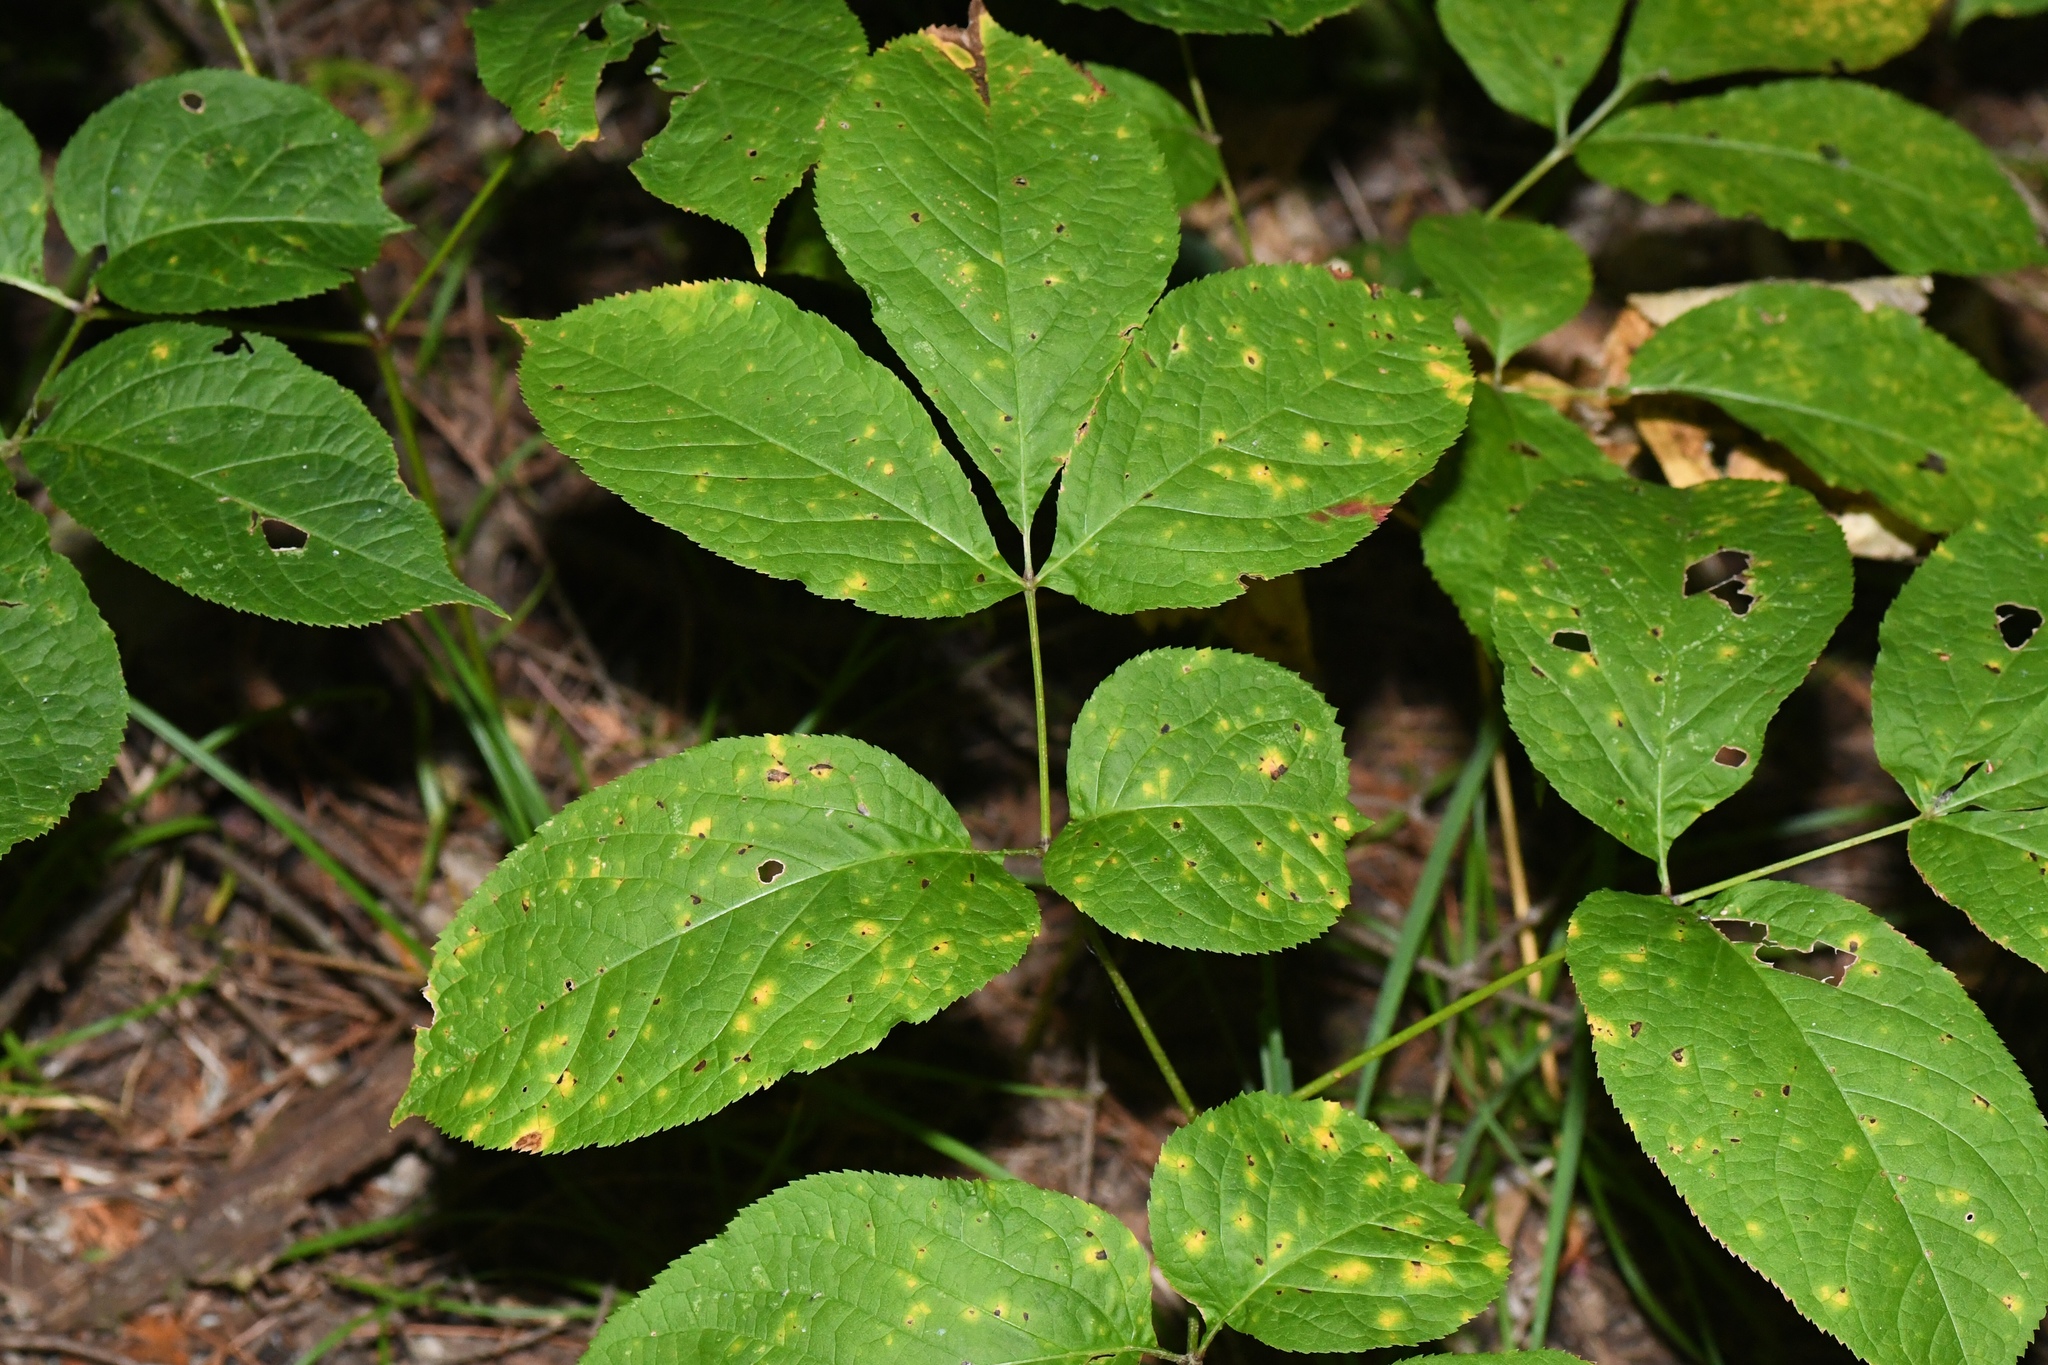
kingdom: Plantae
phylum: Tracheophyta
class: Magnoliopsida
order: Apiales
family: Araliaceae
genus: Aralia
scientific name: Aralia nudicaulis
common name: Wild sarsaparilla
